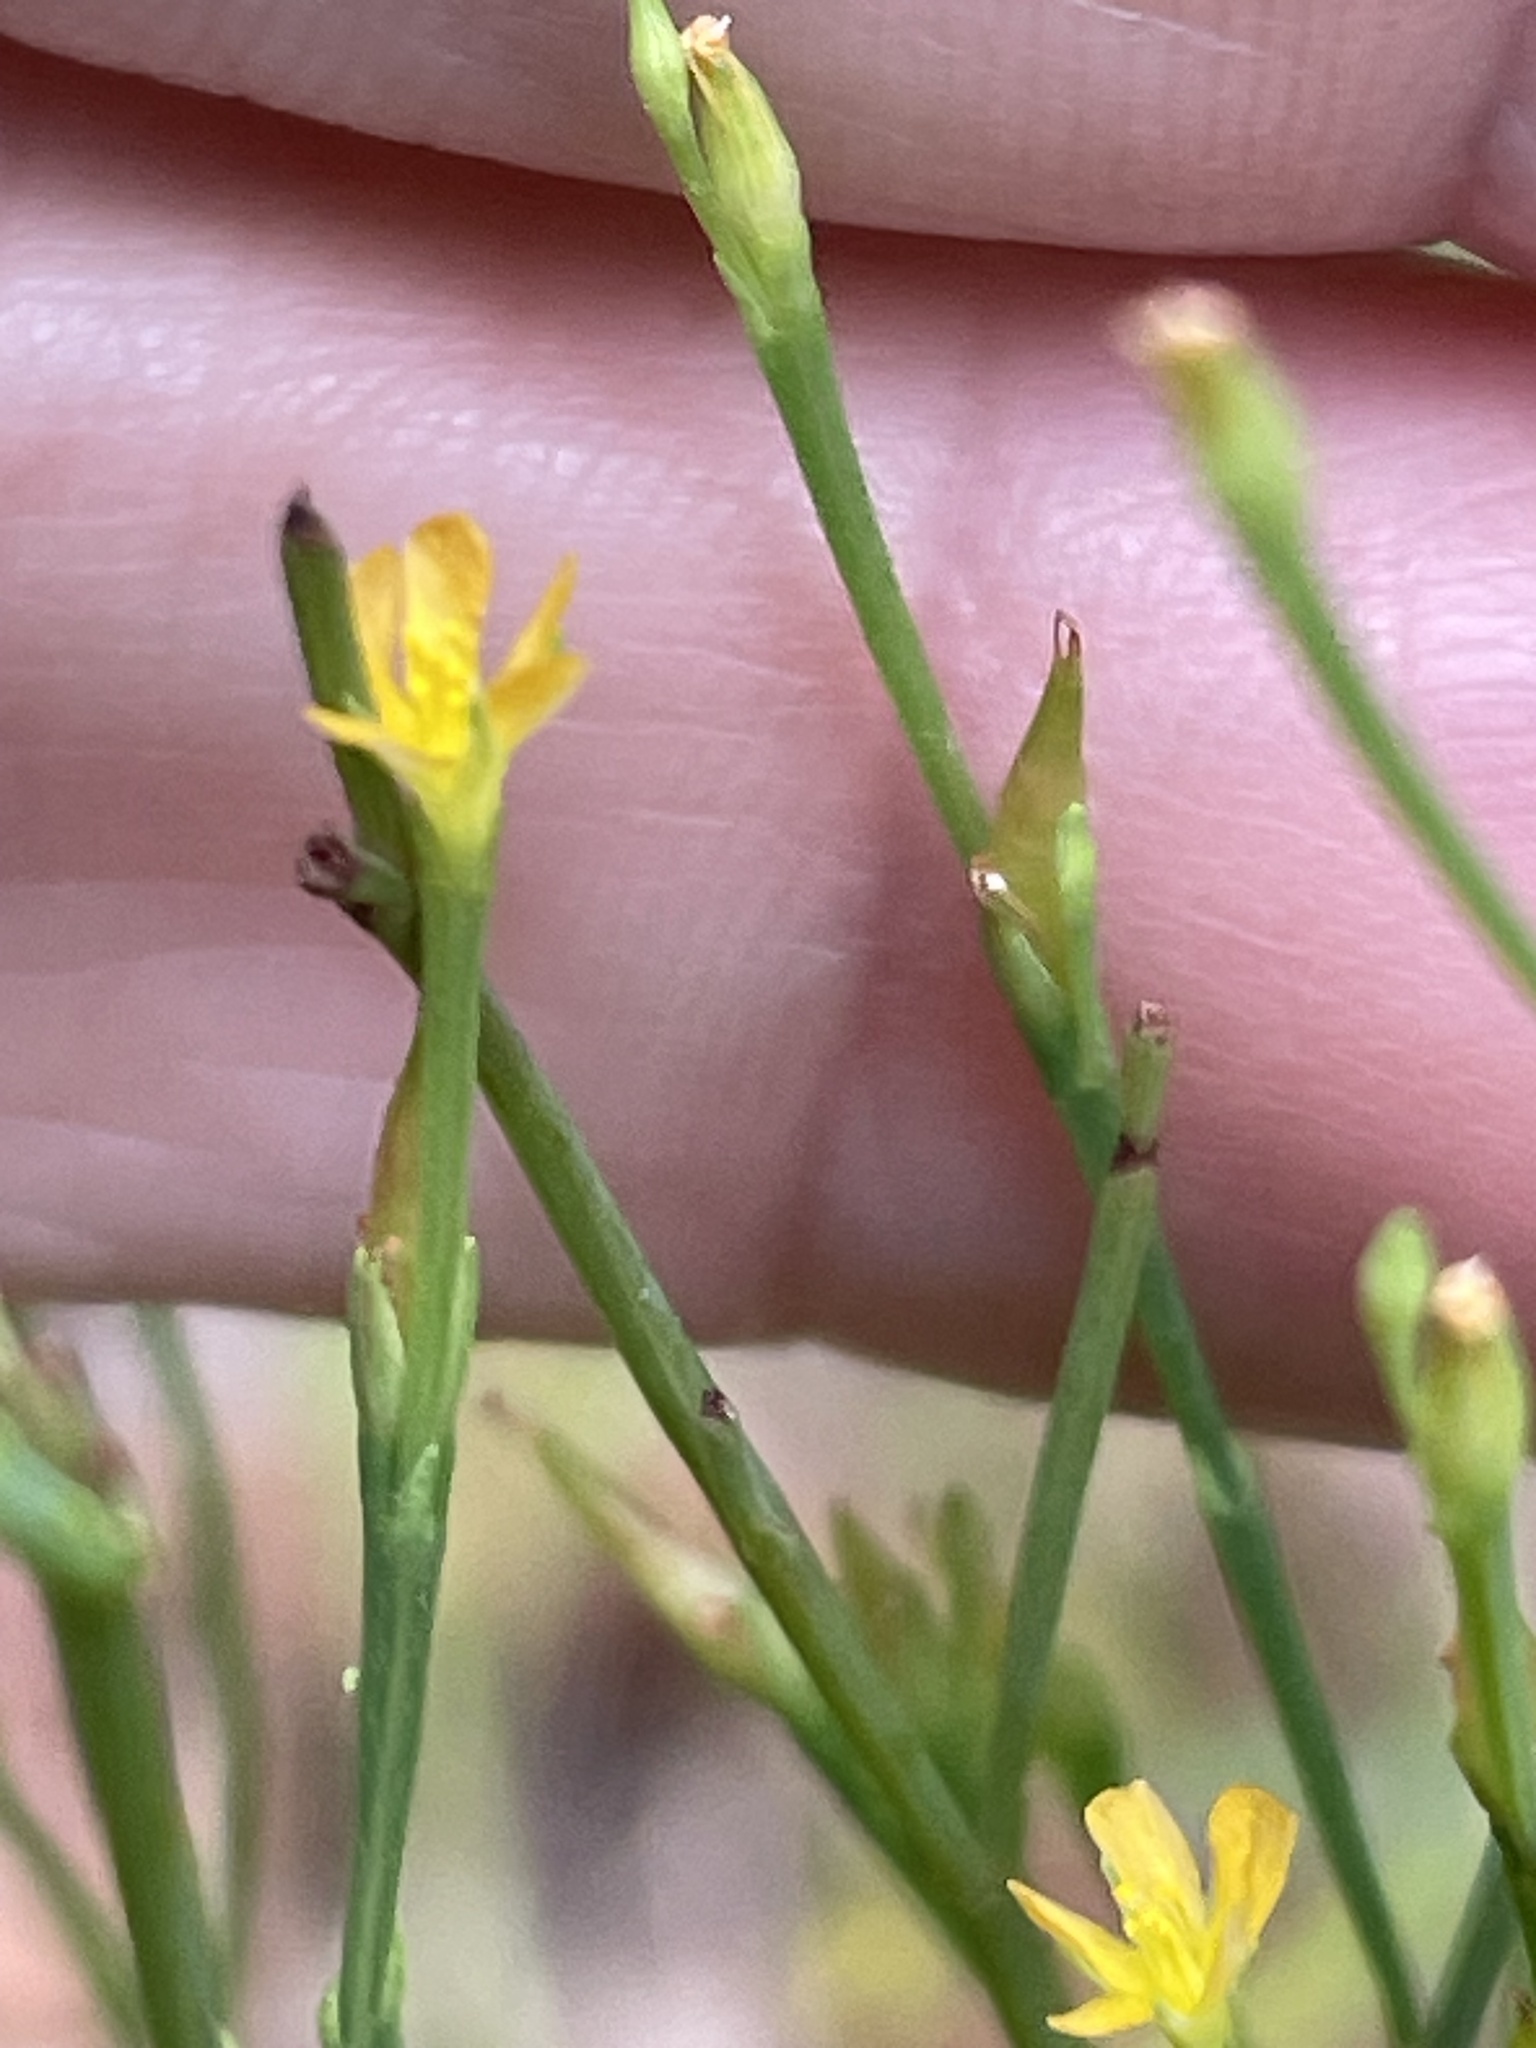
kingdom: Plantae
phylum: Tracheophyta
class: Magnoliopsida
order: Malpighiales
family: Hypericaceae
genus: Hypericum
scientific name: Hypericum gentianoides
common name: Gentian-leaved st. john's-wort
